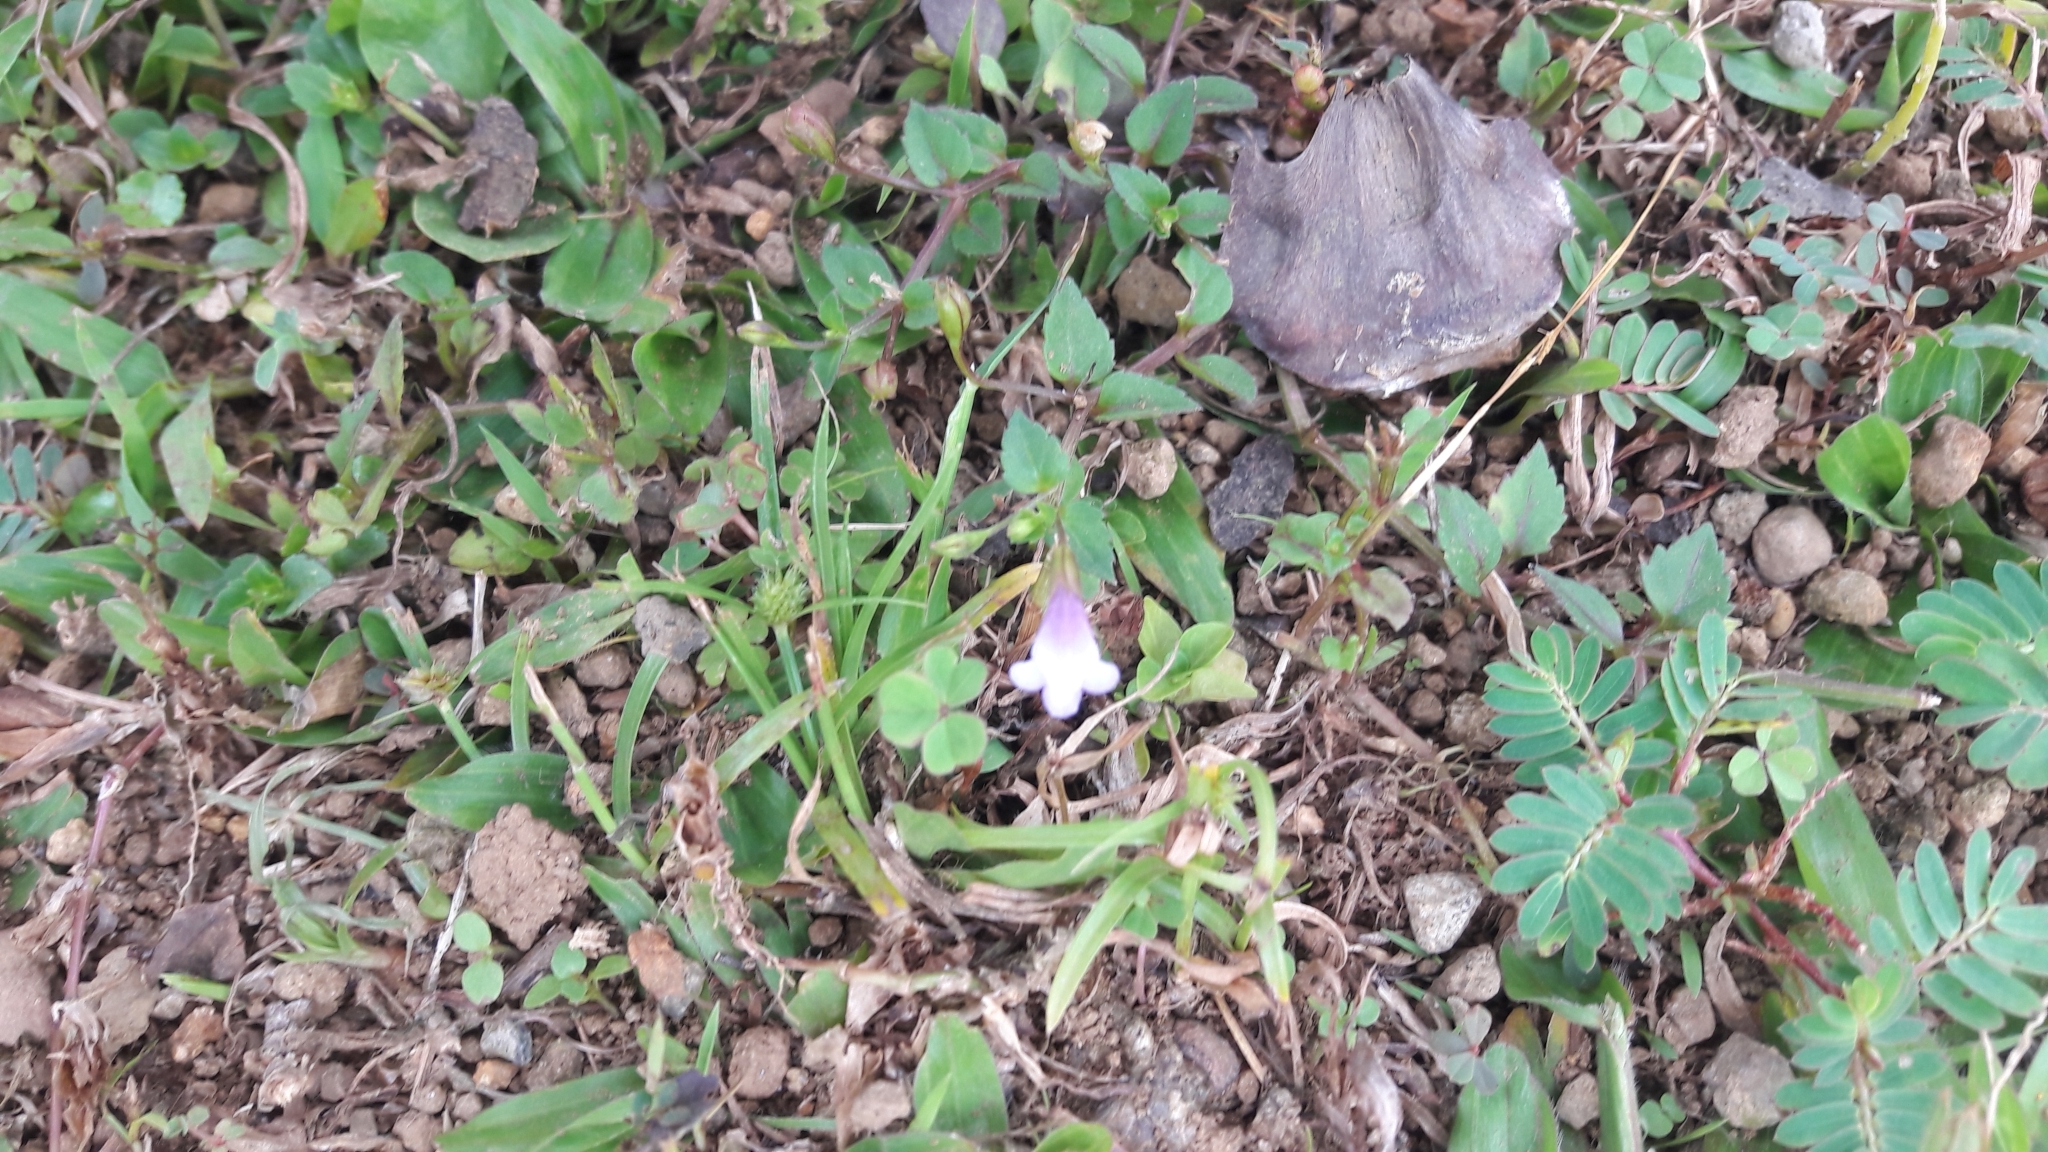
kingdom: Plantae
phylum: Tracheophyta
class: Magnoliopsida
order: Lamiales
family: Linderniaceae
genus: Torenia
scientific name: Torenia crustacea
